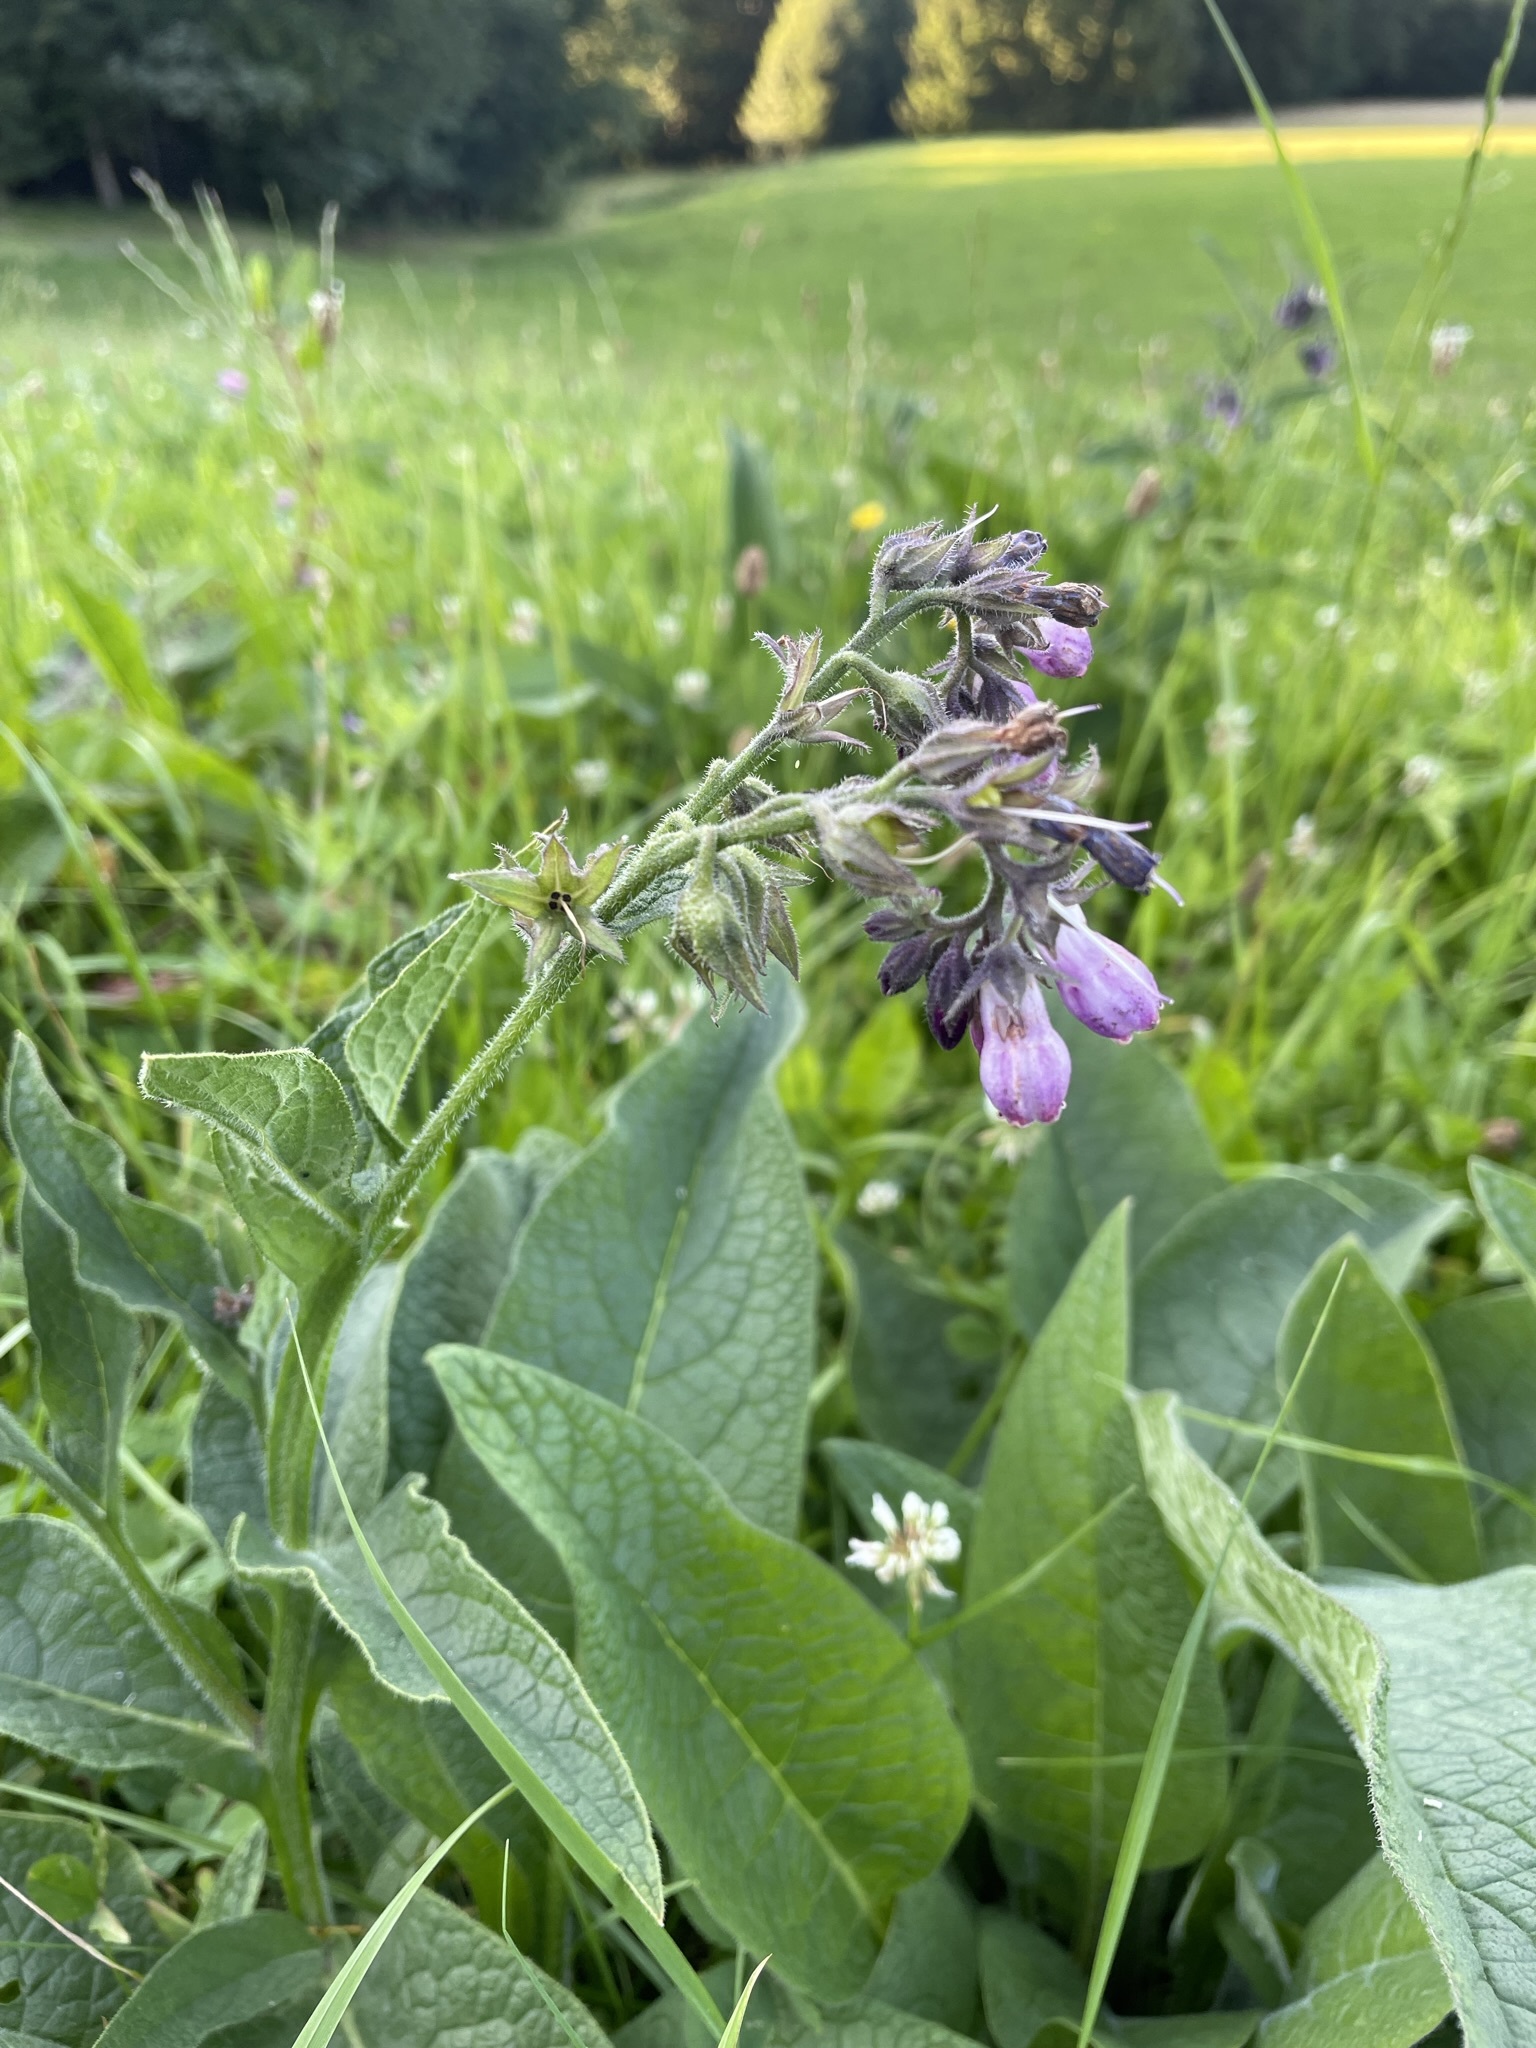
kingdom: Plantae
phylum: Tracheophyta
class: Magnoliopsida
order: Boraginales
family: Boraginaceae
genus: Symphytum
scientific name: Symphytum officinale
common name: Common comfrey
